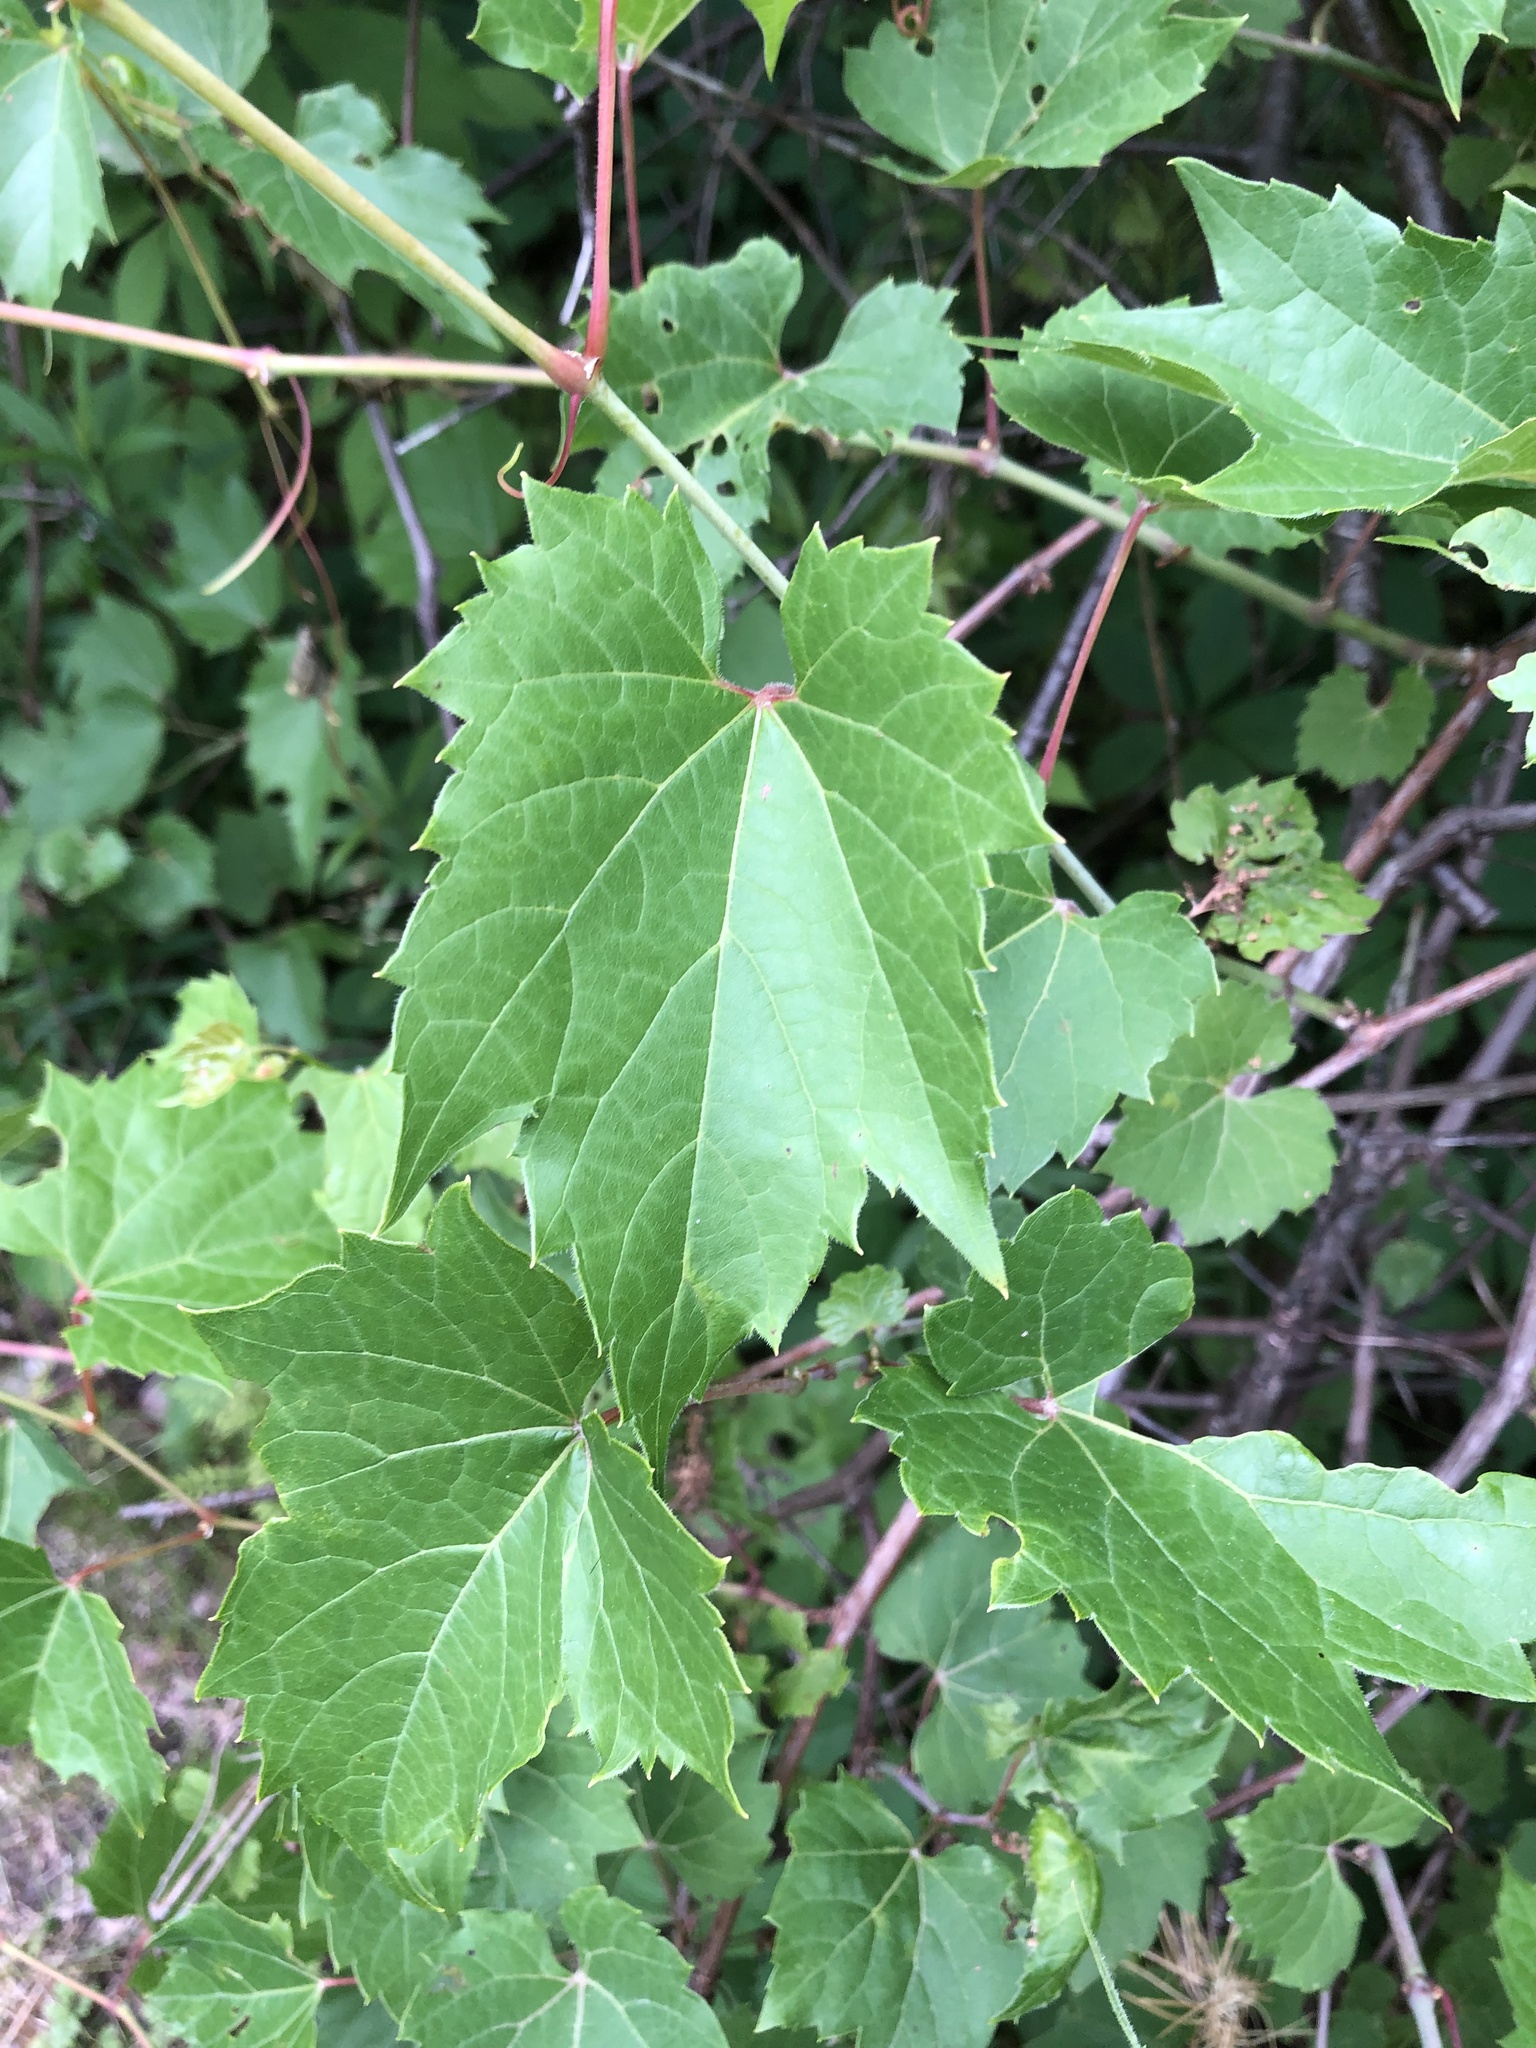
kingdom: Plantae
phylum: Tracheophyta
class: Magnoliopsida
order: Vitales
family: Vitaceae
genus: Vitis
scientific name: Vitis riparia
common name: Frost grape
